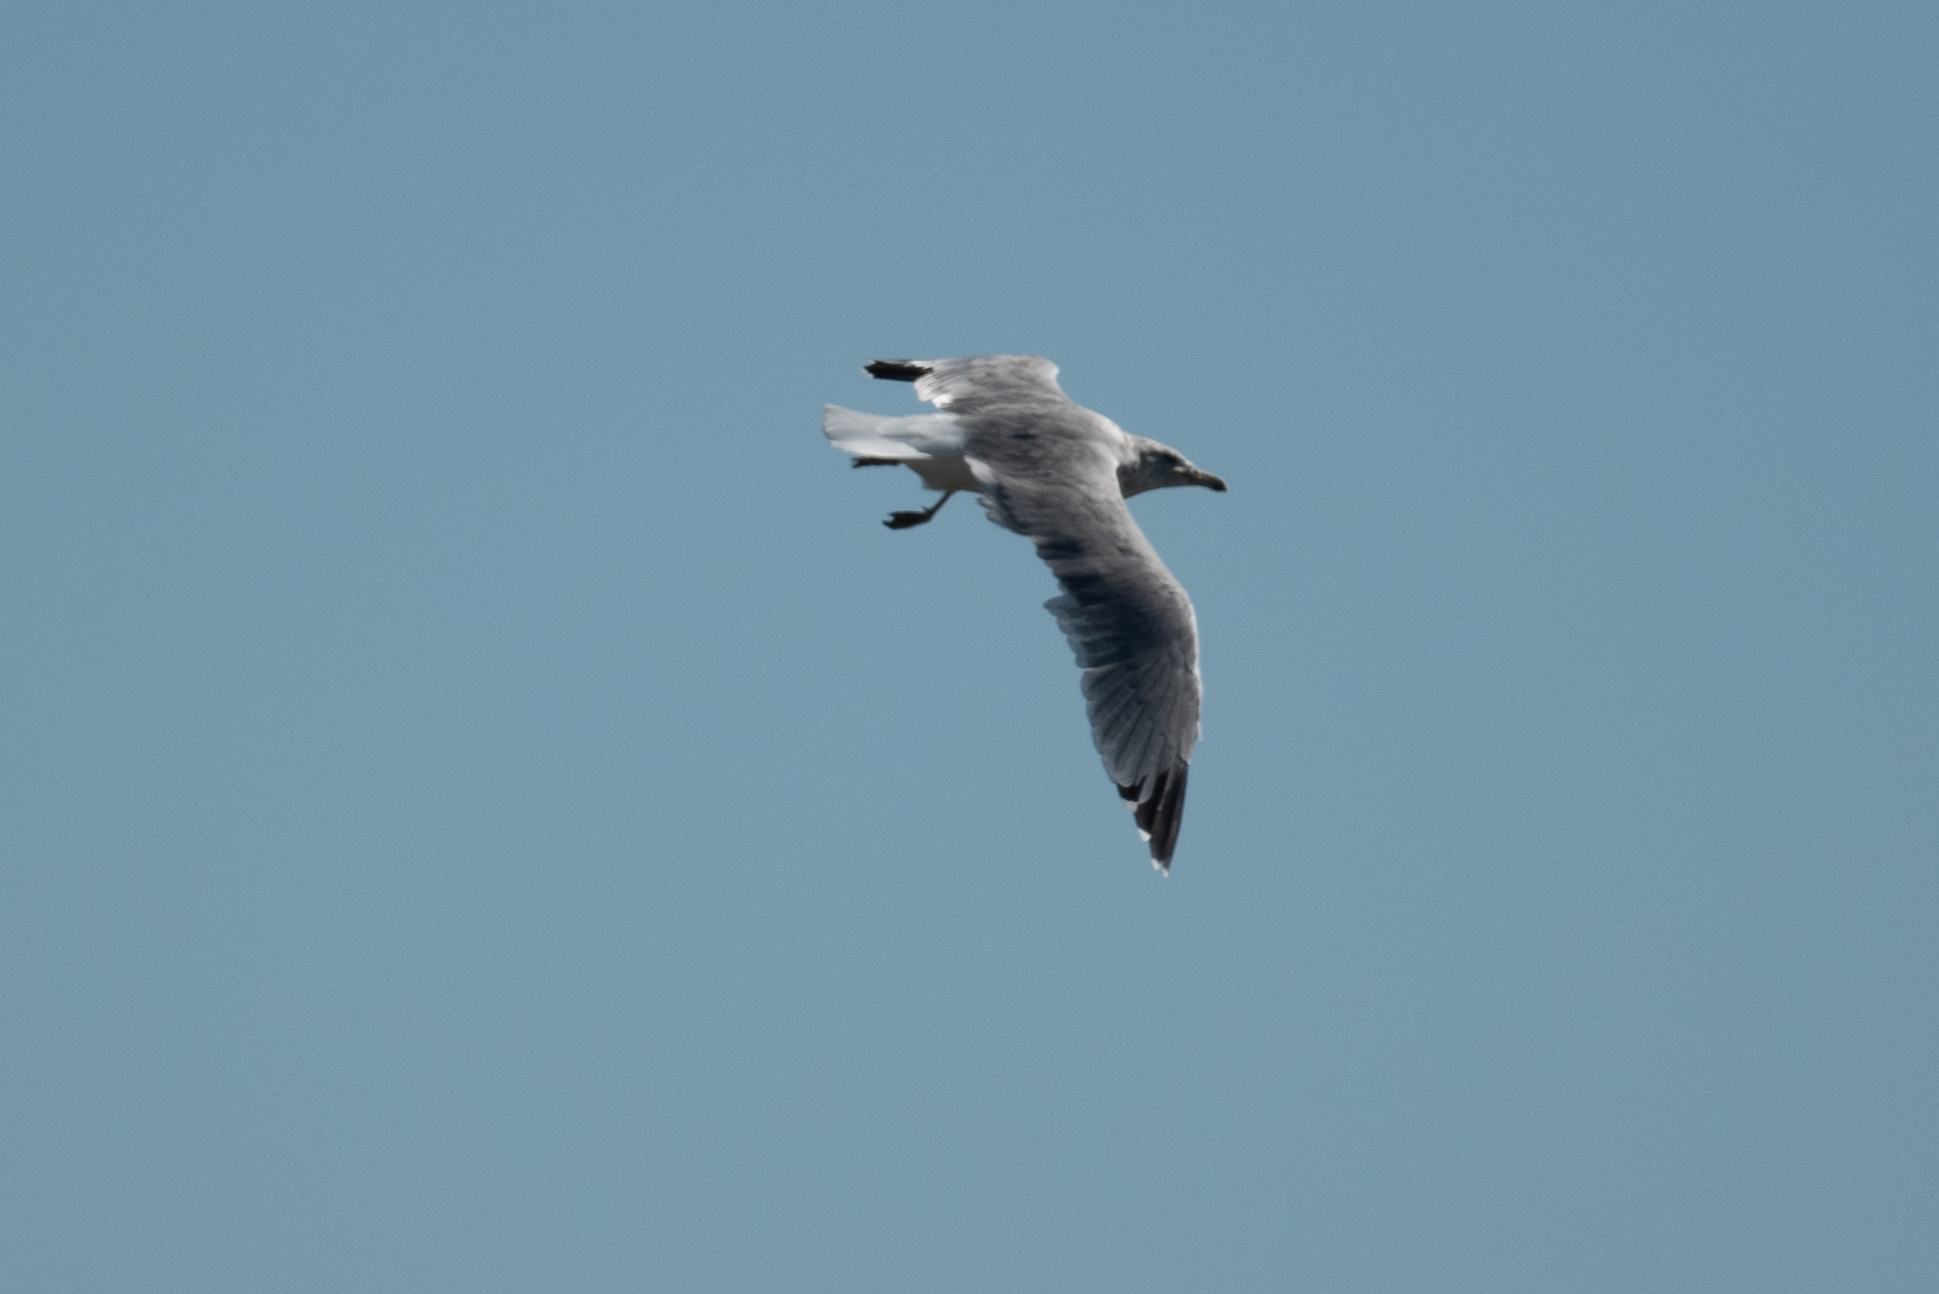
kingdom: Animalia
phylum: Chordata
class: Aves
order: Charadriiformes
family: Laridae
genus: Larus
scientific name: Larus californicus
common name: California gull
